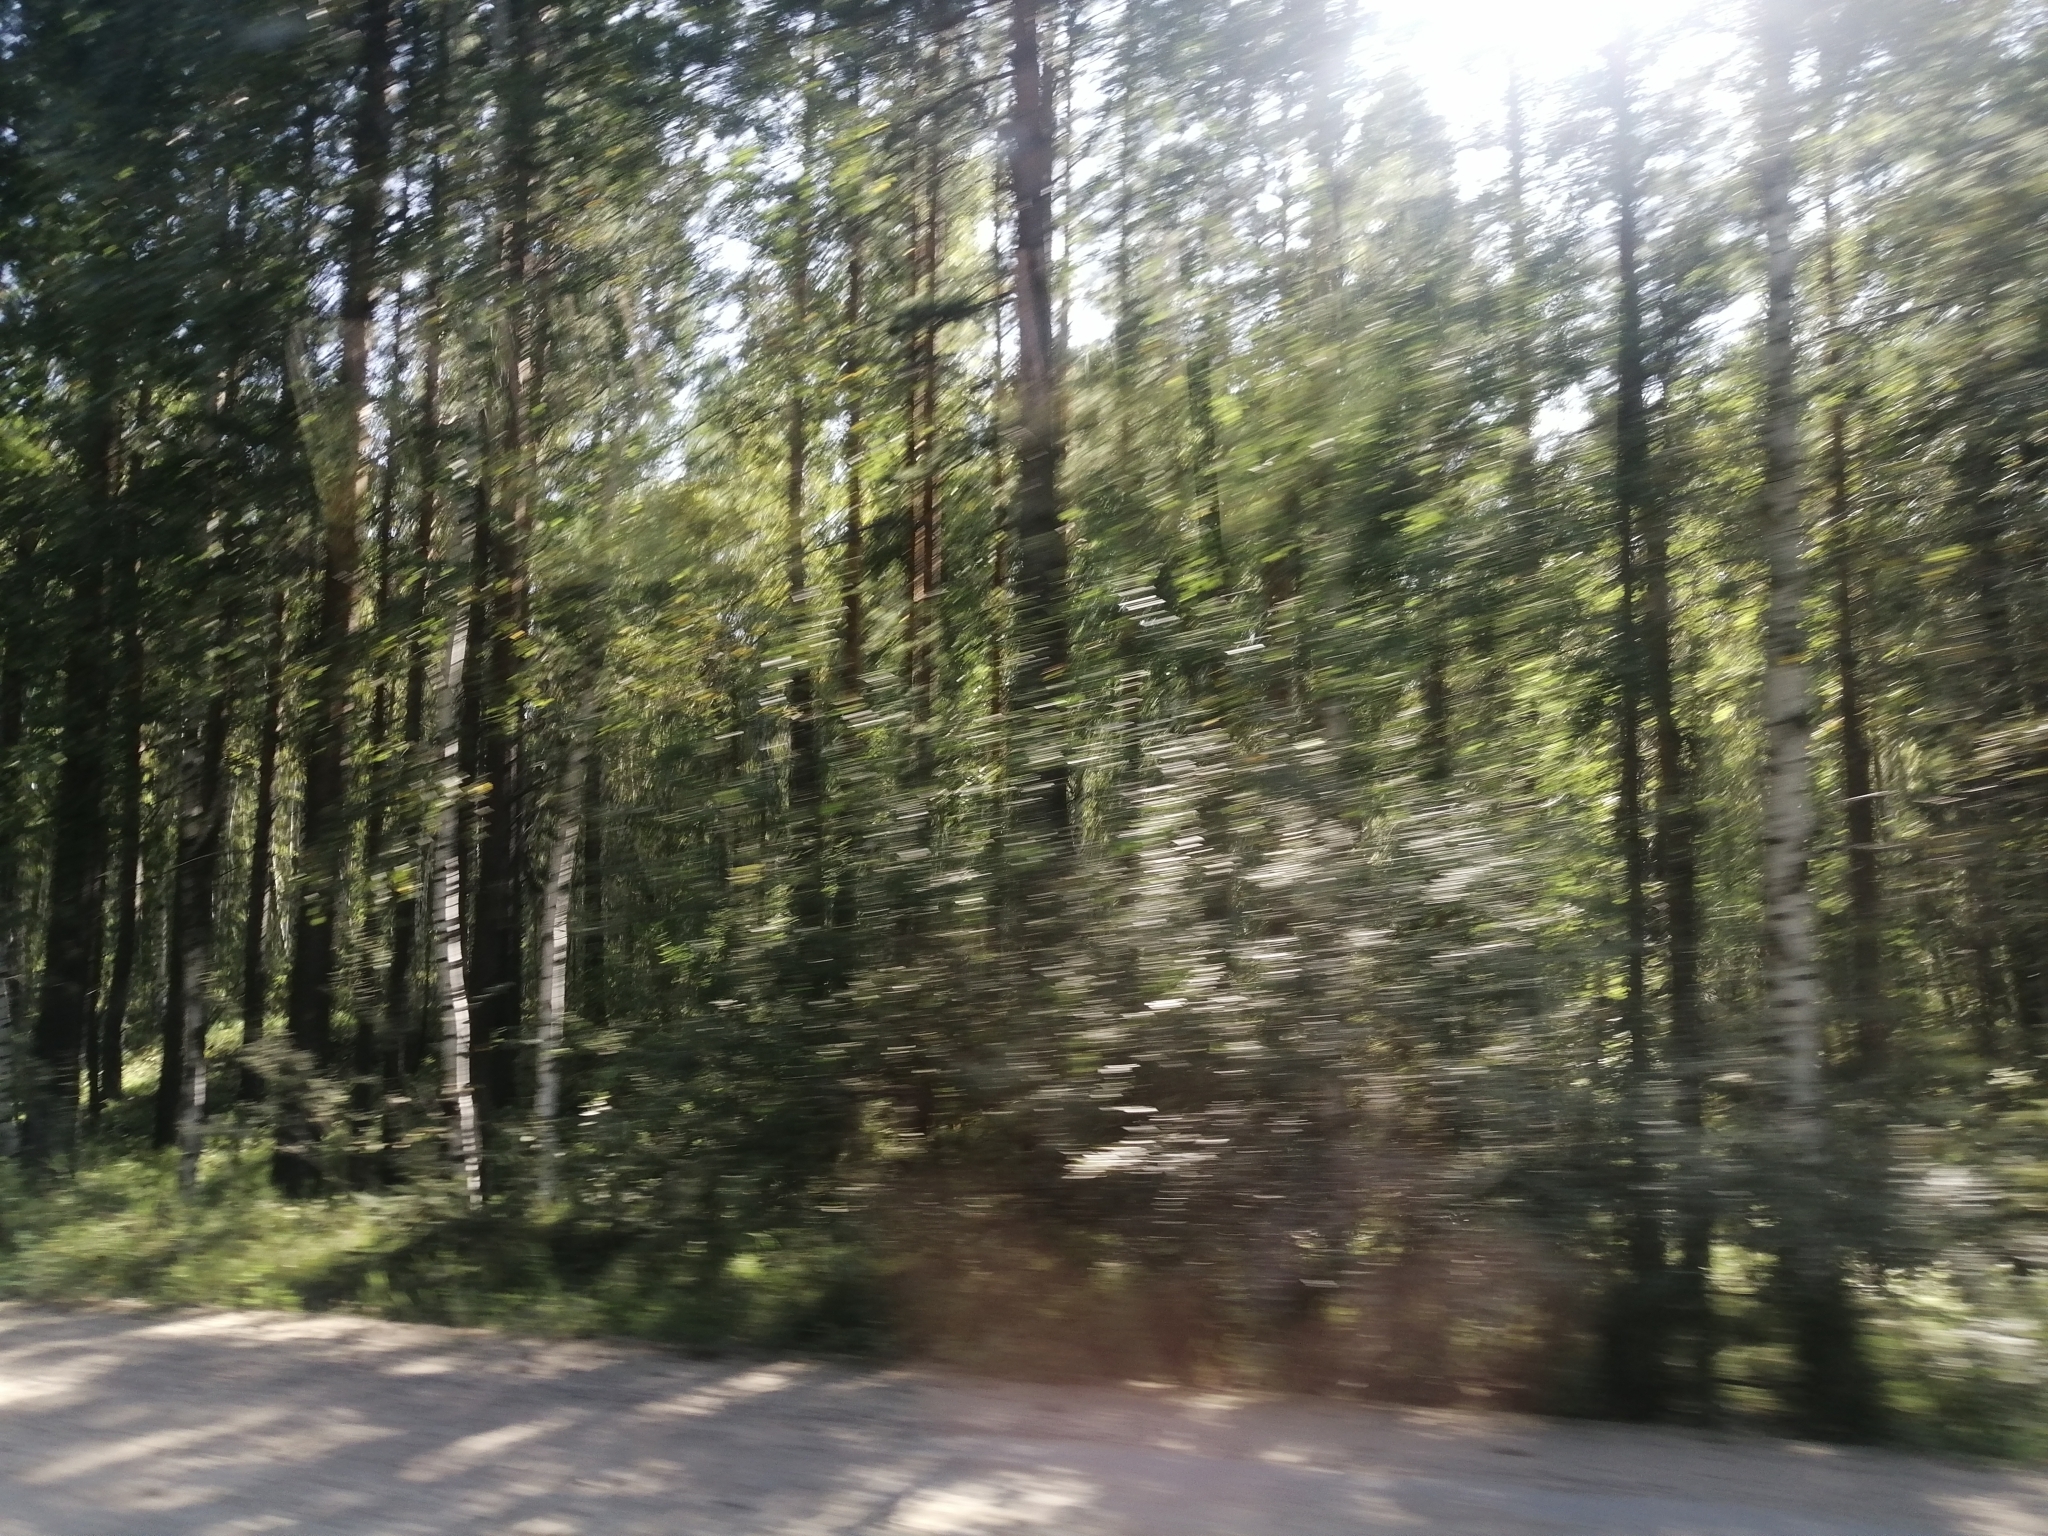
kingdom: Plantae
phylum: Tracheophyta
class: Pinopsida
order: Pinales
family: Pinaceae
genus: Pinus
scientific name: Pinus sylvestris
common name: Scots pine
